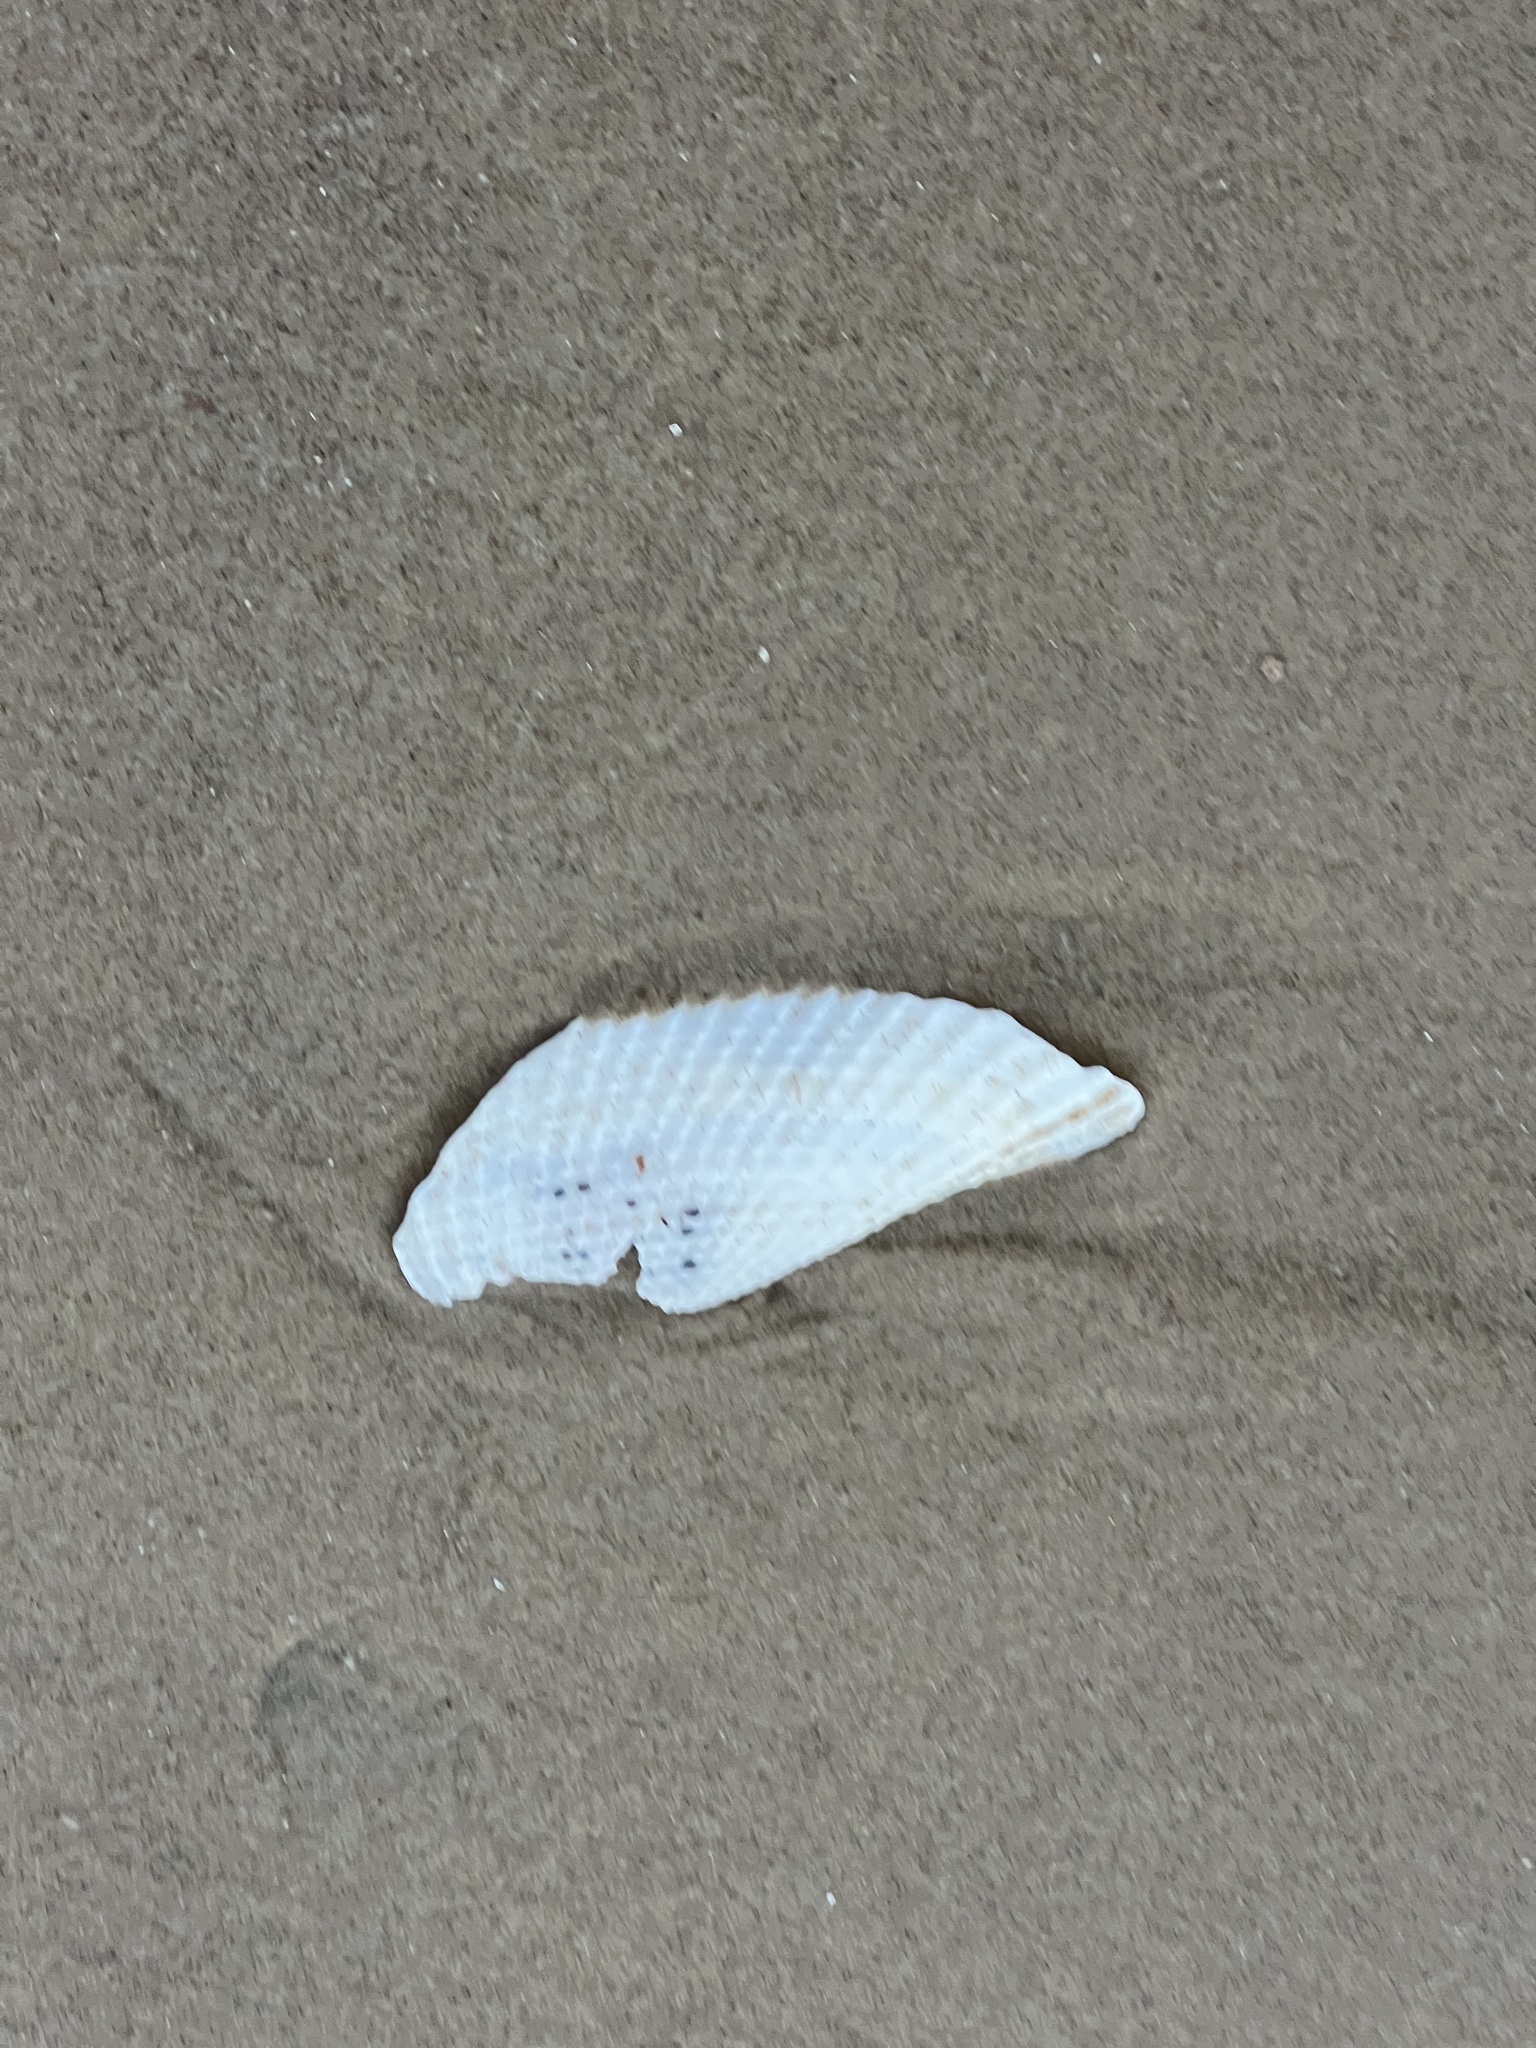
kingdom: Animalia
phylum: Mollusca
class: Bivalvia
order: Myida
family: Pholadidae
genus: Cyrtopleura
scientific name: Cyrtopleura costata
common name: Angel wing
